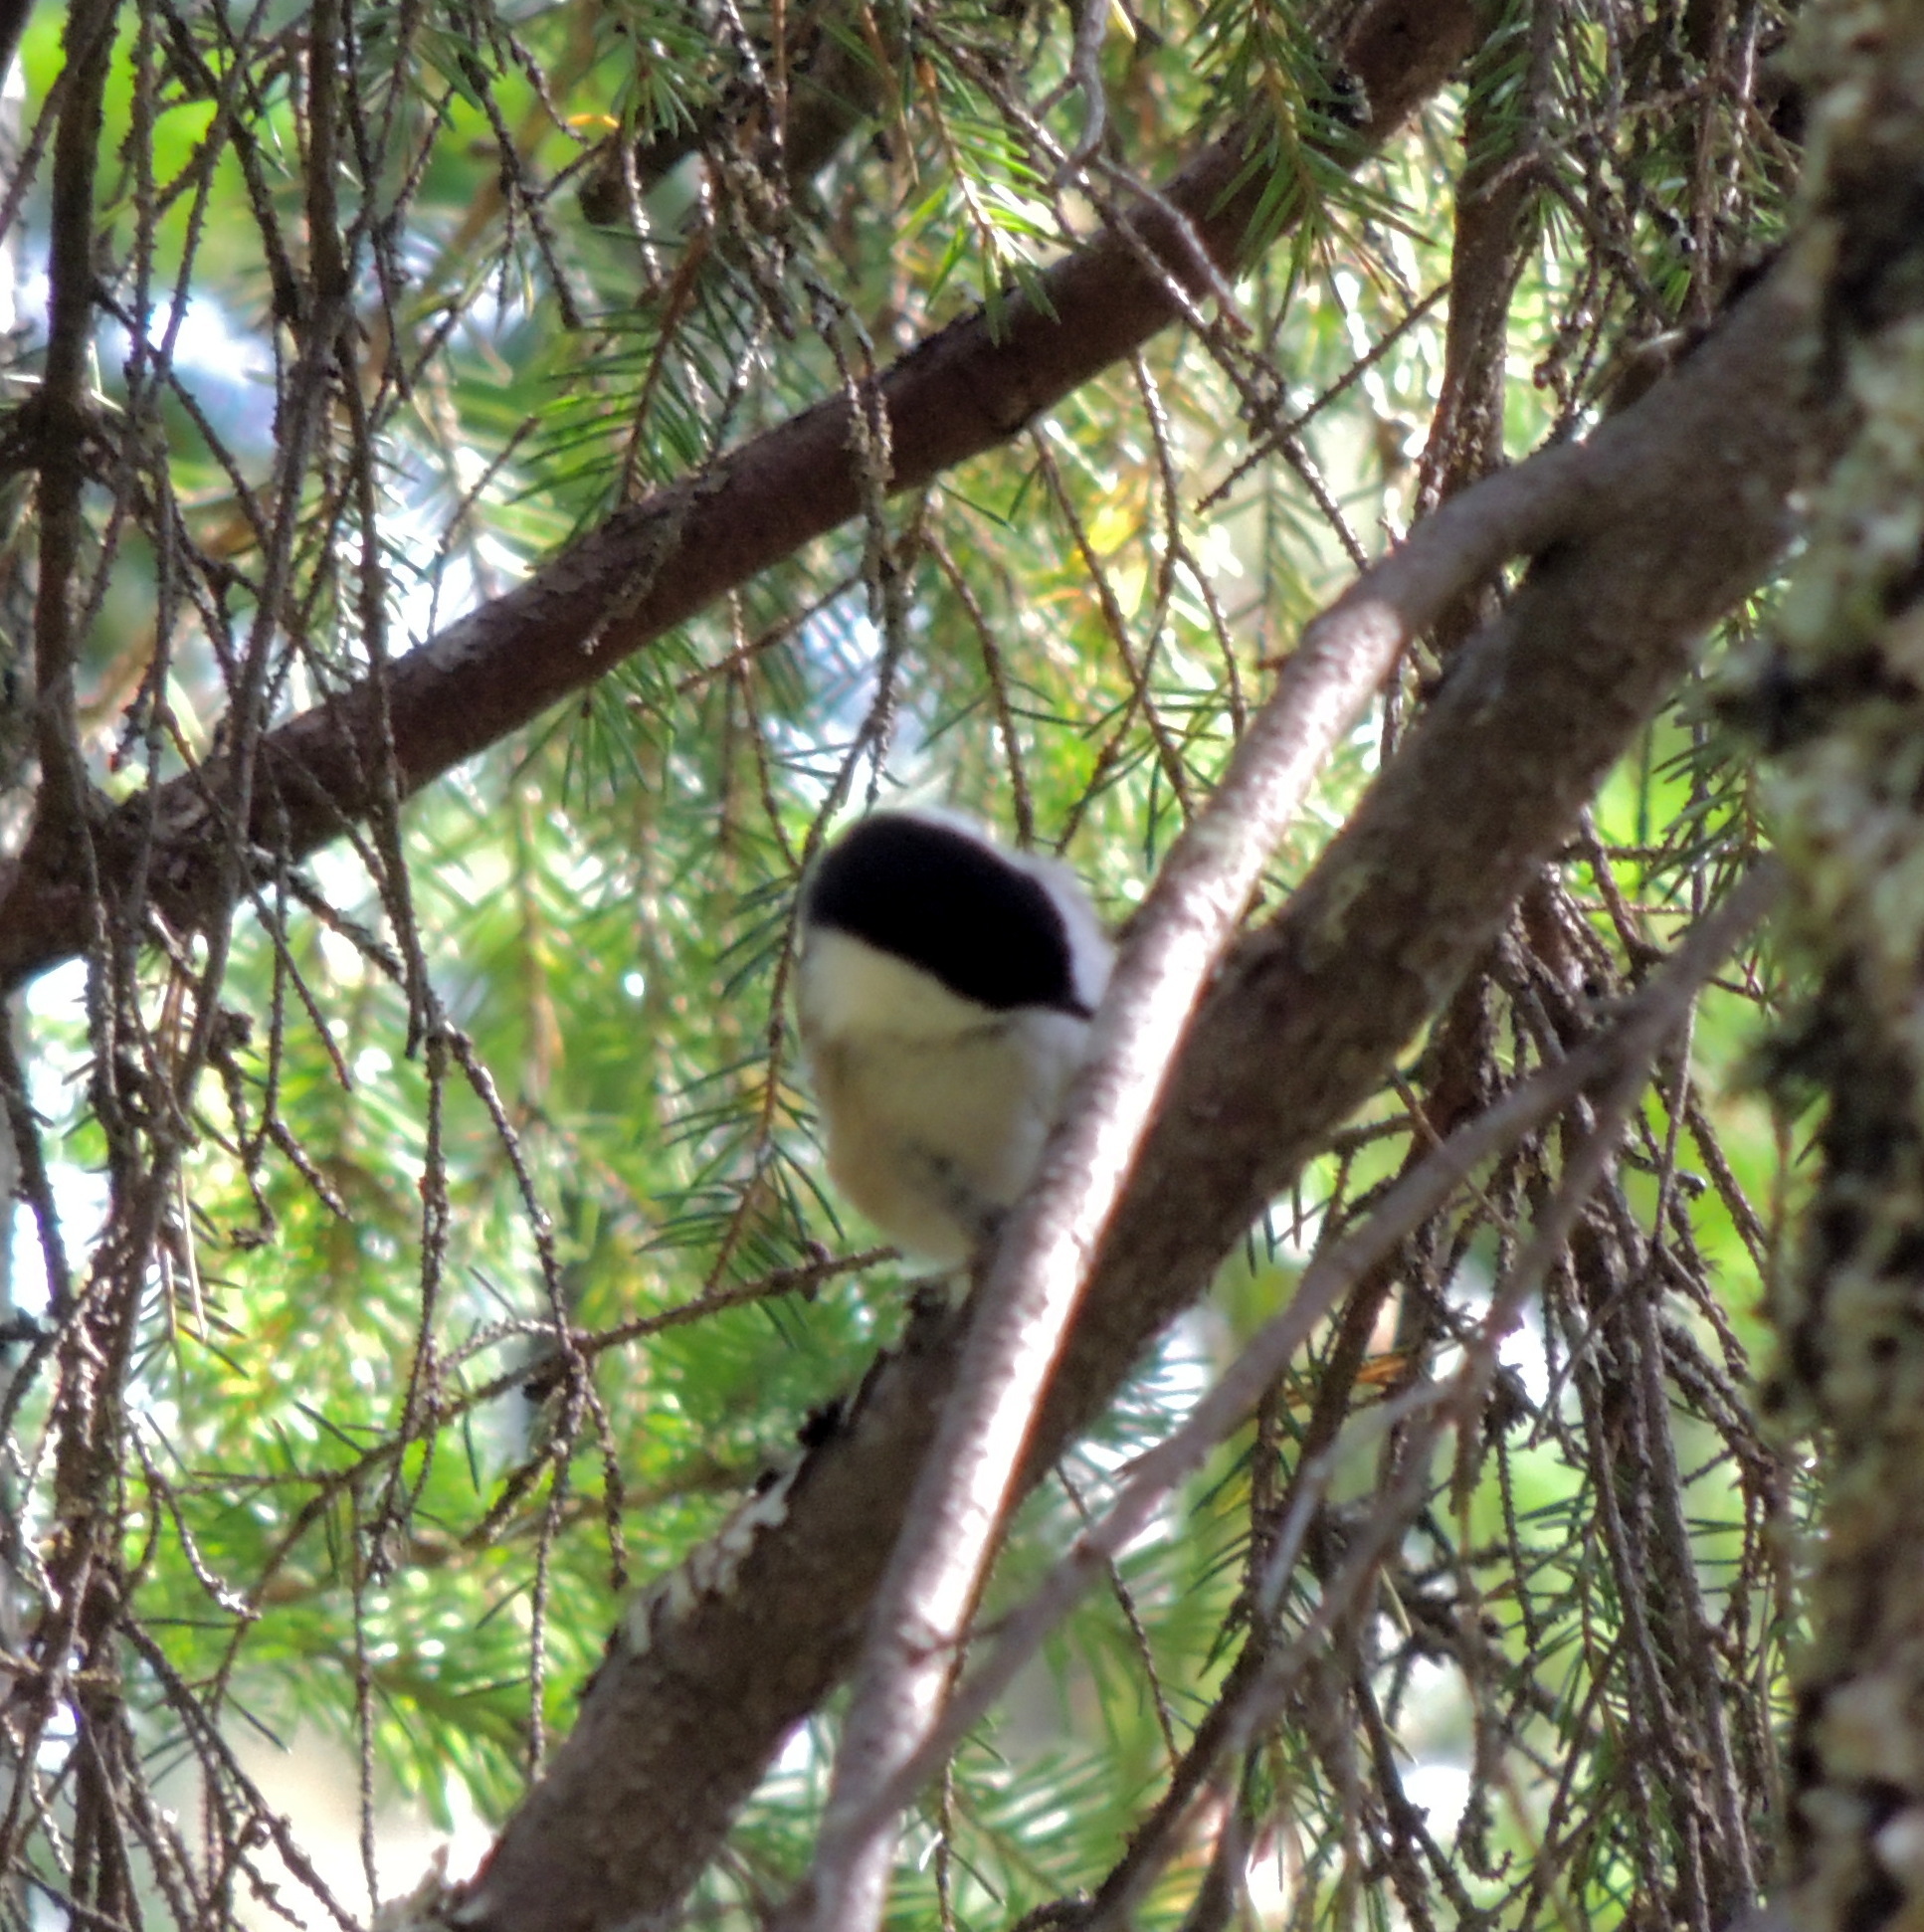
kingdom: Animalia
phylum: Chordata
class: Aves
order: Passeriformes
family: Paridae
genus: Poecile
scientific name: Poecile montanus
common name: Willow tit
